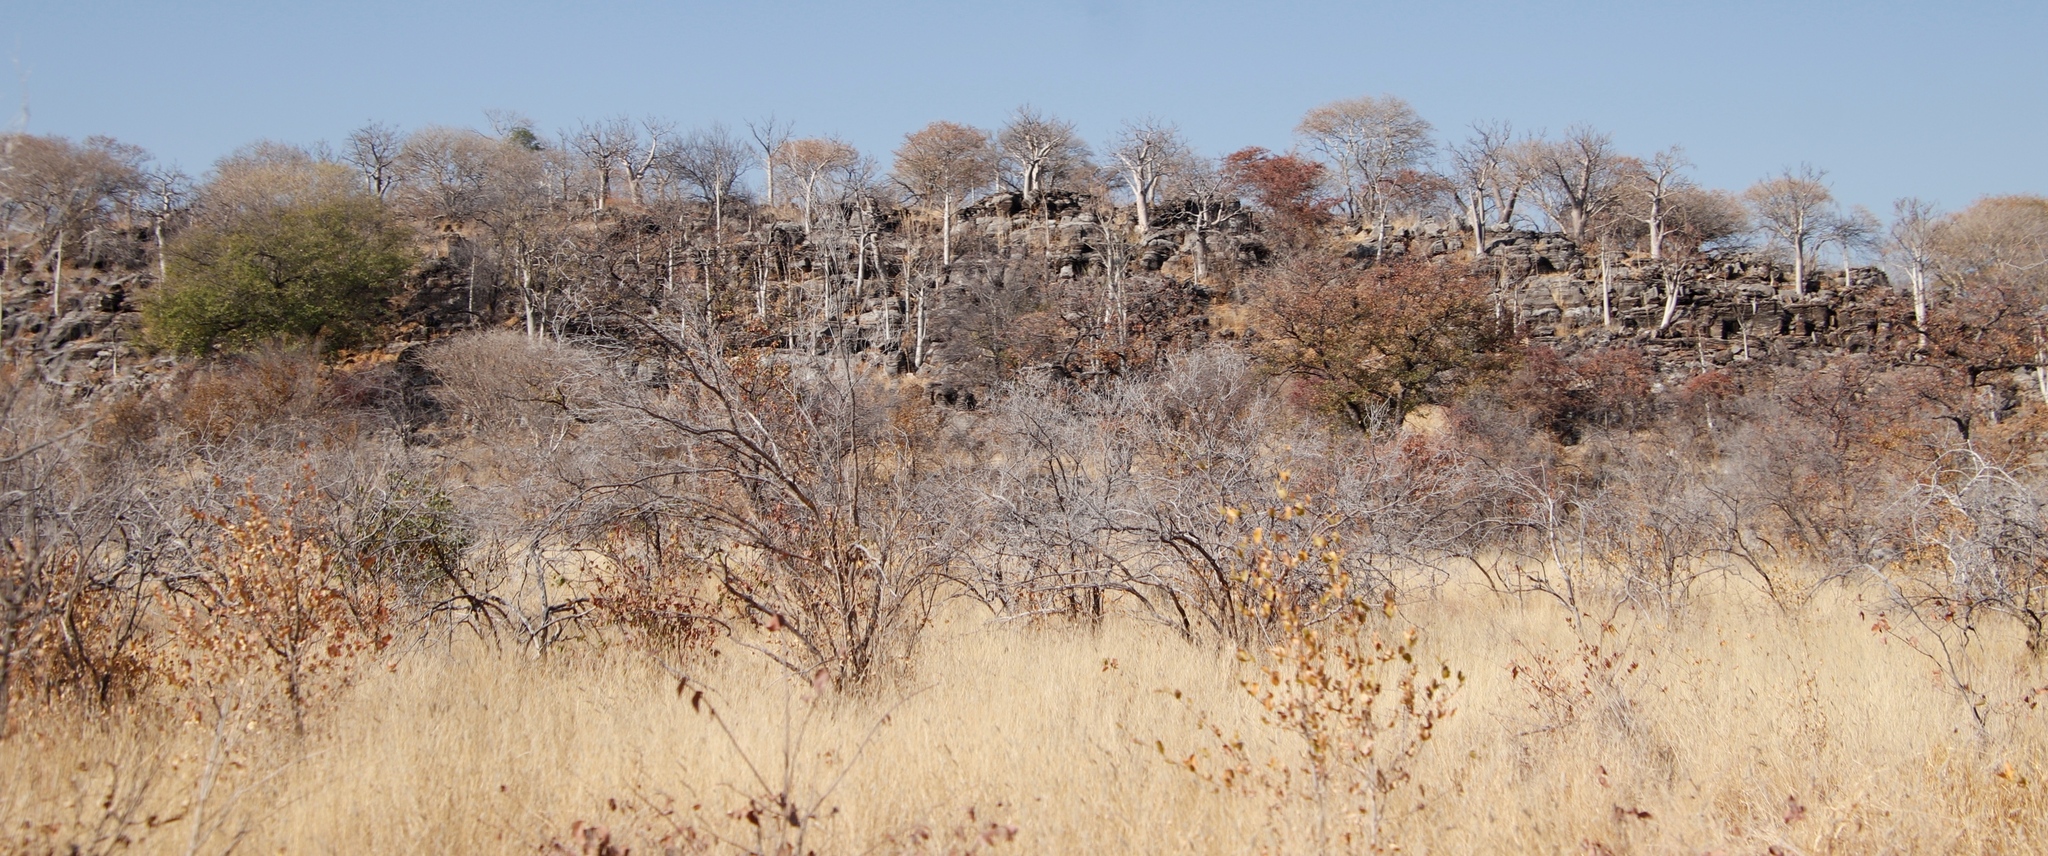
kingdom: Plantae
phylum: Tracheophyta
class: Magnoliopsida
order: Brassicales
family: Moringaceae
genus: Moringa
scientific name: Moringa ovalifolia
